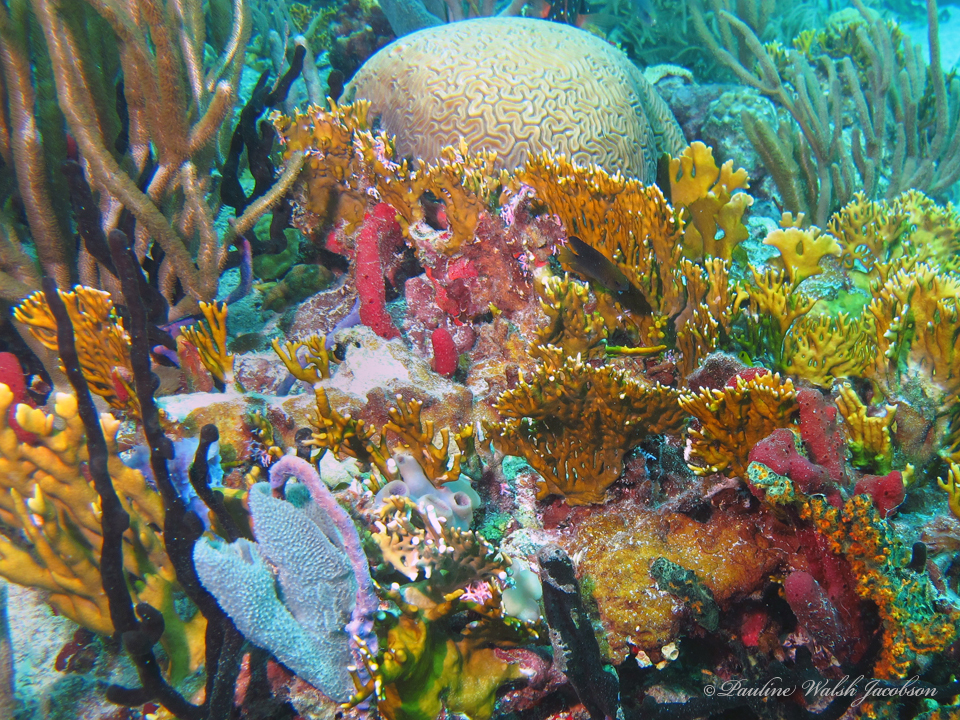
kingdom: Animalia
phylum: Cnidaria
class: Hydrozoa
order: Anthoathecata
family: Milleporidae
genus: Millepora
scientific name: Millepora alcicornis
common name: Branching fire coral
